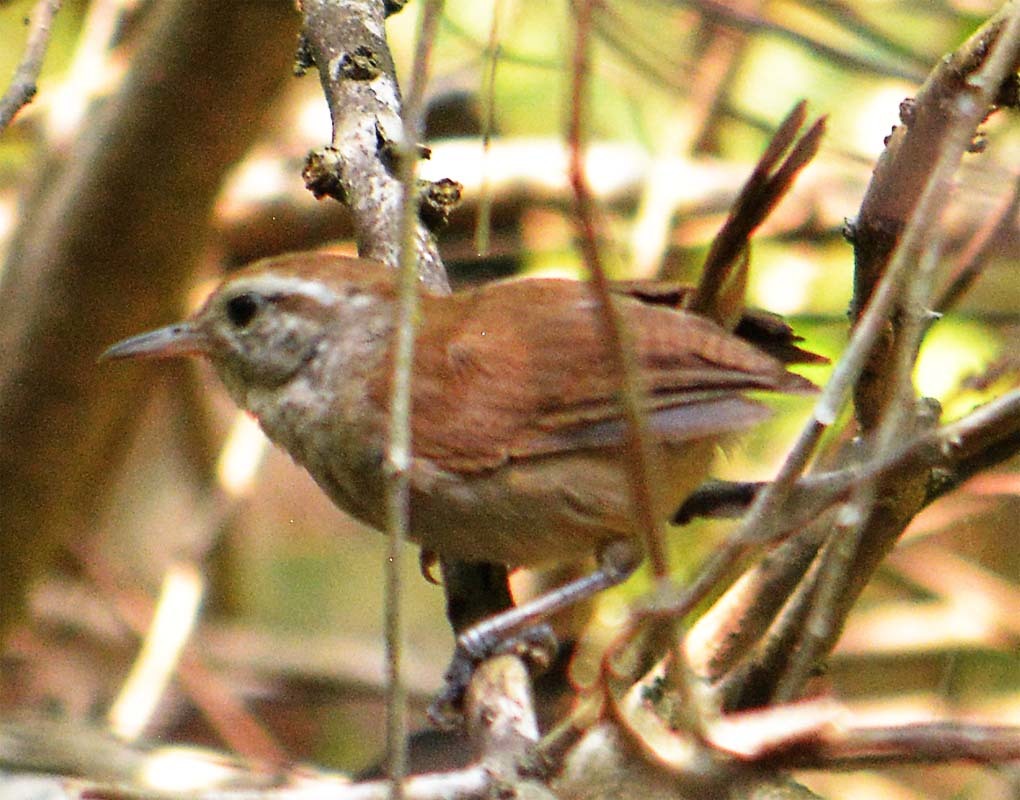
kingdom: Animalia
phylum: Chordata
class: Aves
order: Passeriformes
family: Troglodytidae
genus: Uropsila
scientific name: Uropsila leucogastra
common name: White-bellied wren
